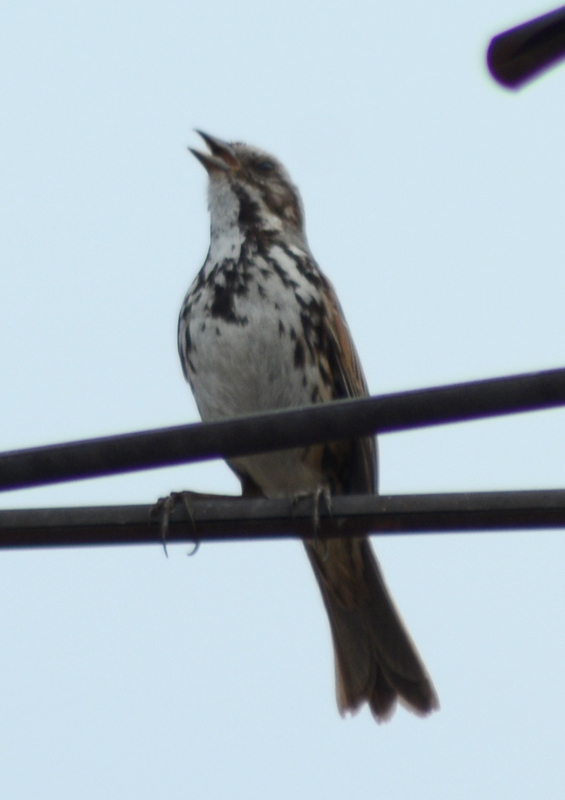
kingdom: Animalia
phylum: Chordata
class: Aves
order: Passeriformes
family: Passerellidae
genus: Melospiza
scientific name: Melospiza melodia
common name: Song sparrow
